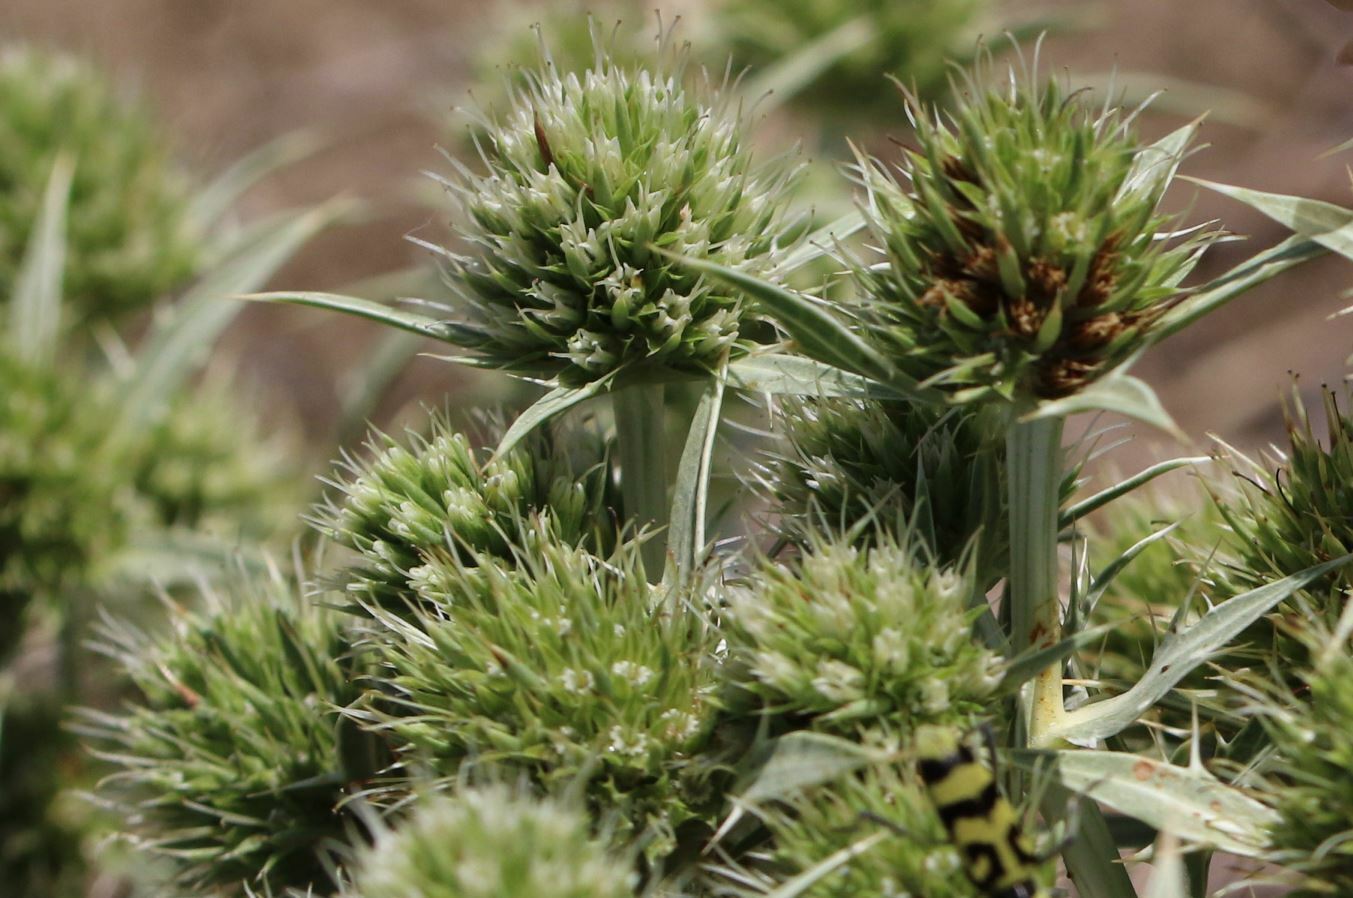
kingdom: Plantae
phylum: Tracheophyta
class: Magnoliopsida
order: Apiales
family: Apiaceae
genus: Eryngium
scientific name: Eryngium campestre
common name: Field eryngo
